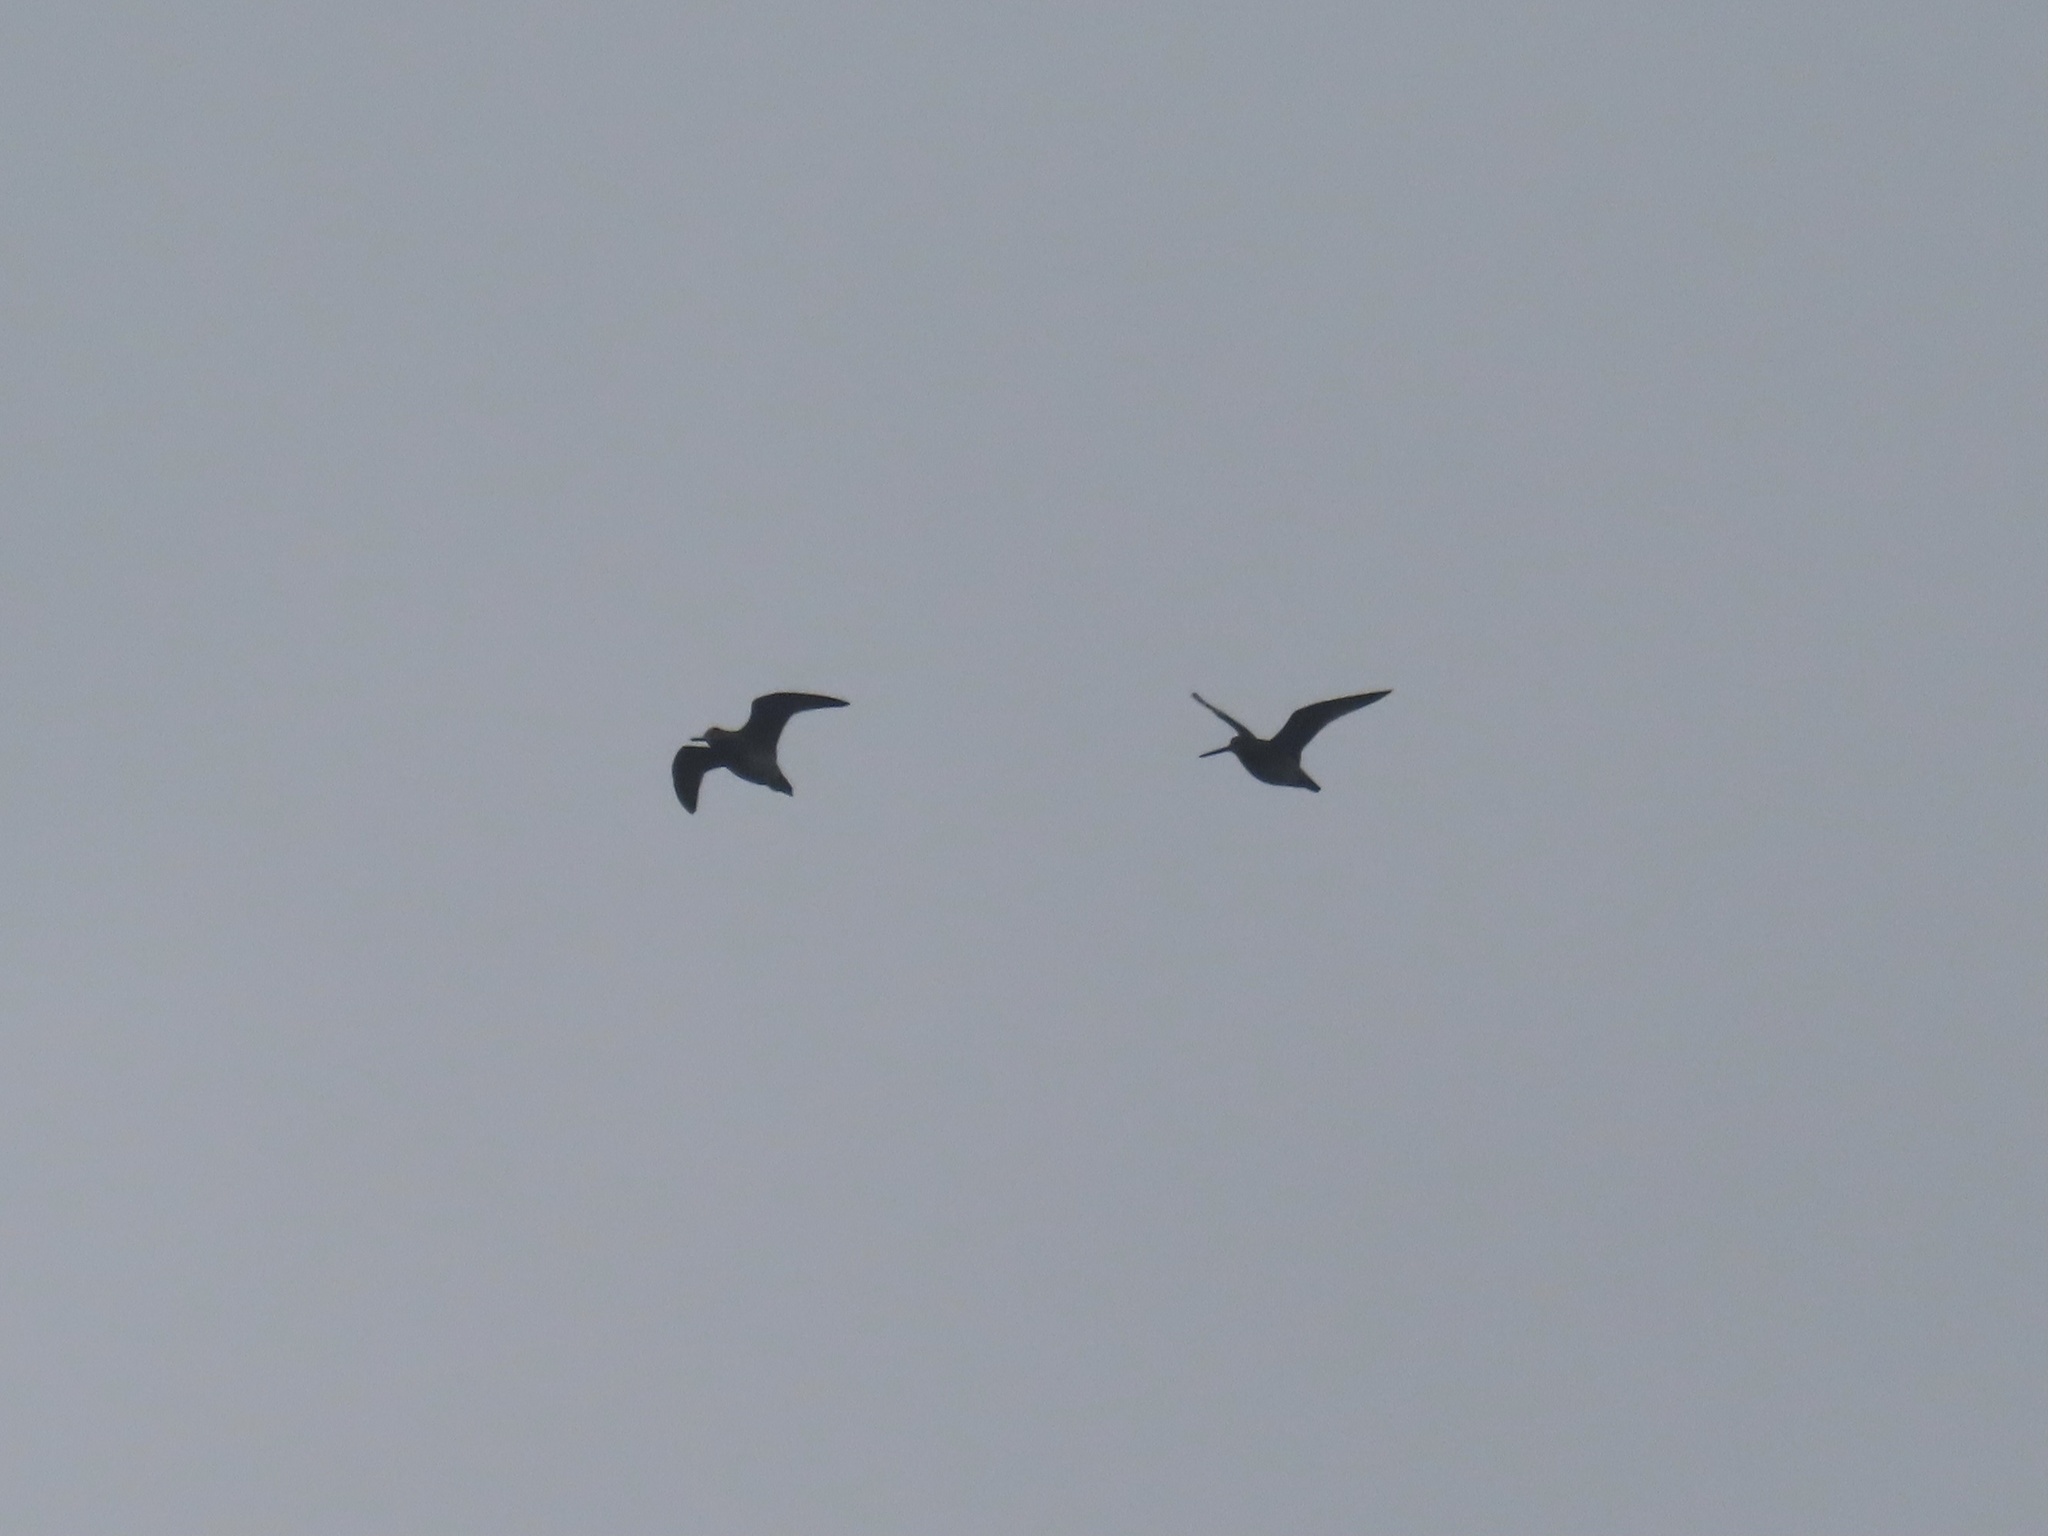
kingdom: Animalia
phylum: Chordata
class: Aves
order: Charadriiformes
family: Scolopacidae
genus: Gallinago
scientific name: Gallinago delicata
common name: Wilson's snipe
